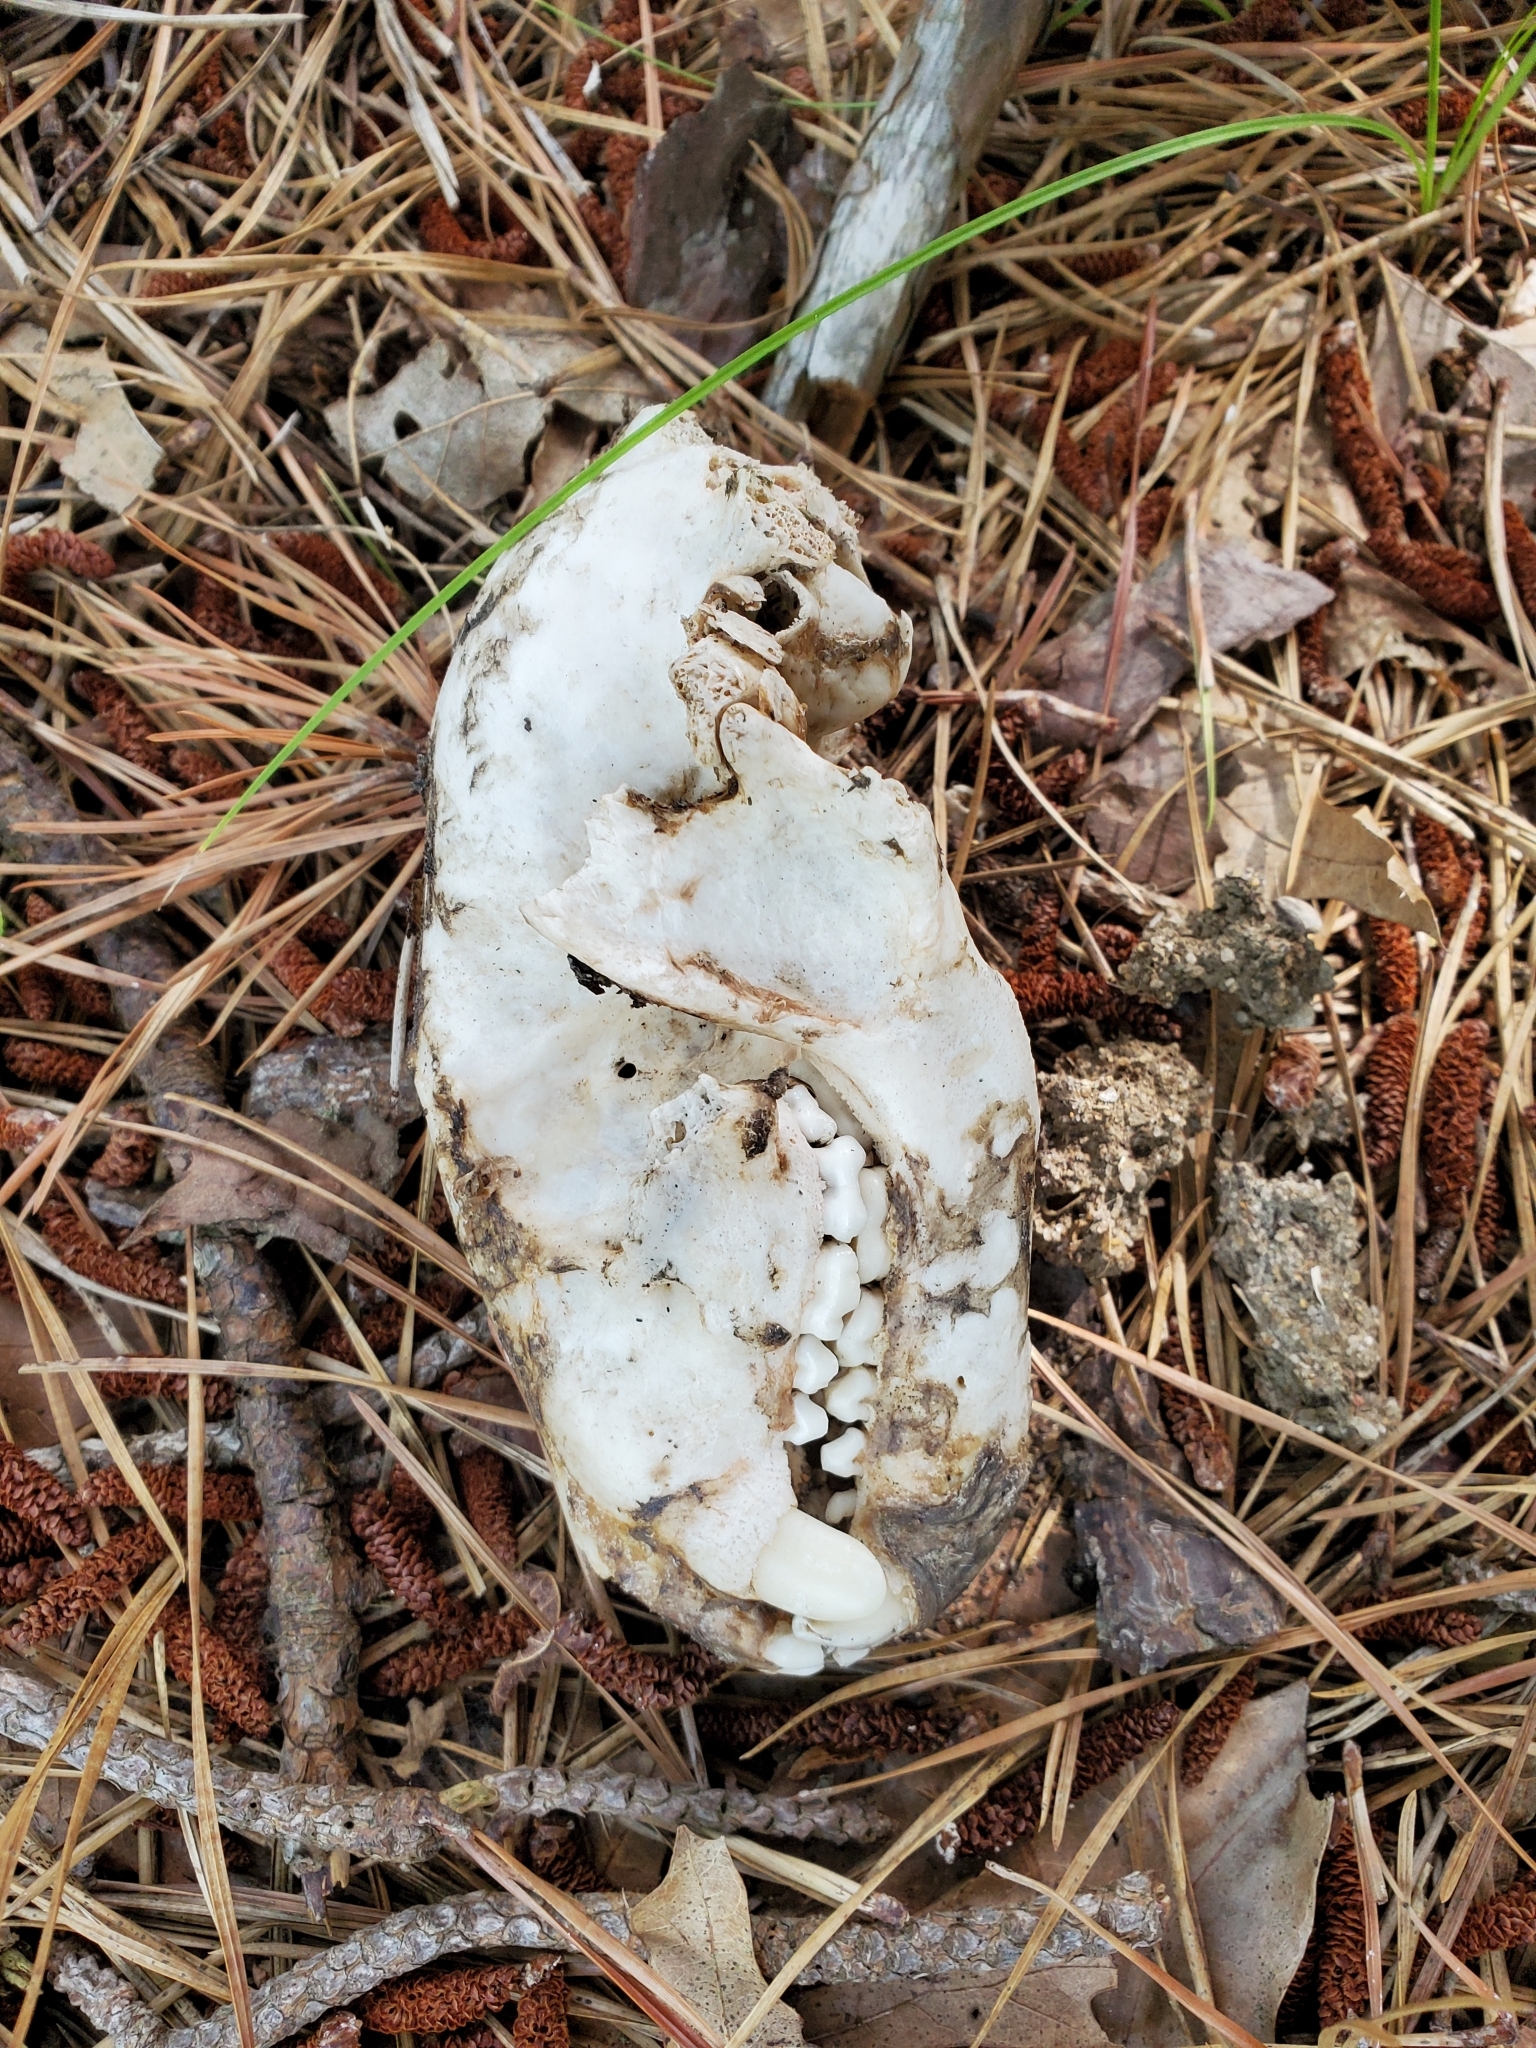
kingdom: Animalia
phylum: Chordata
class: Mammalia
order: Carnivora
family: Procyonidae
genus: Procyon
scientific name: Procyon lotor
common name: Raccoon
